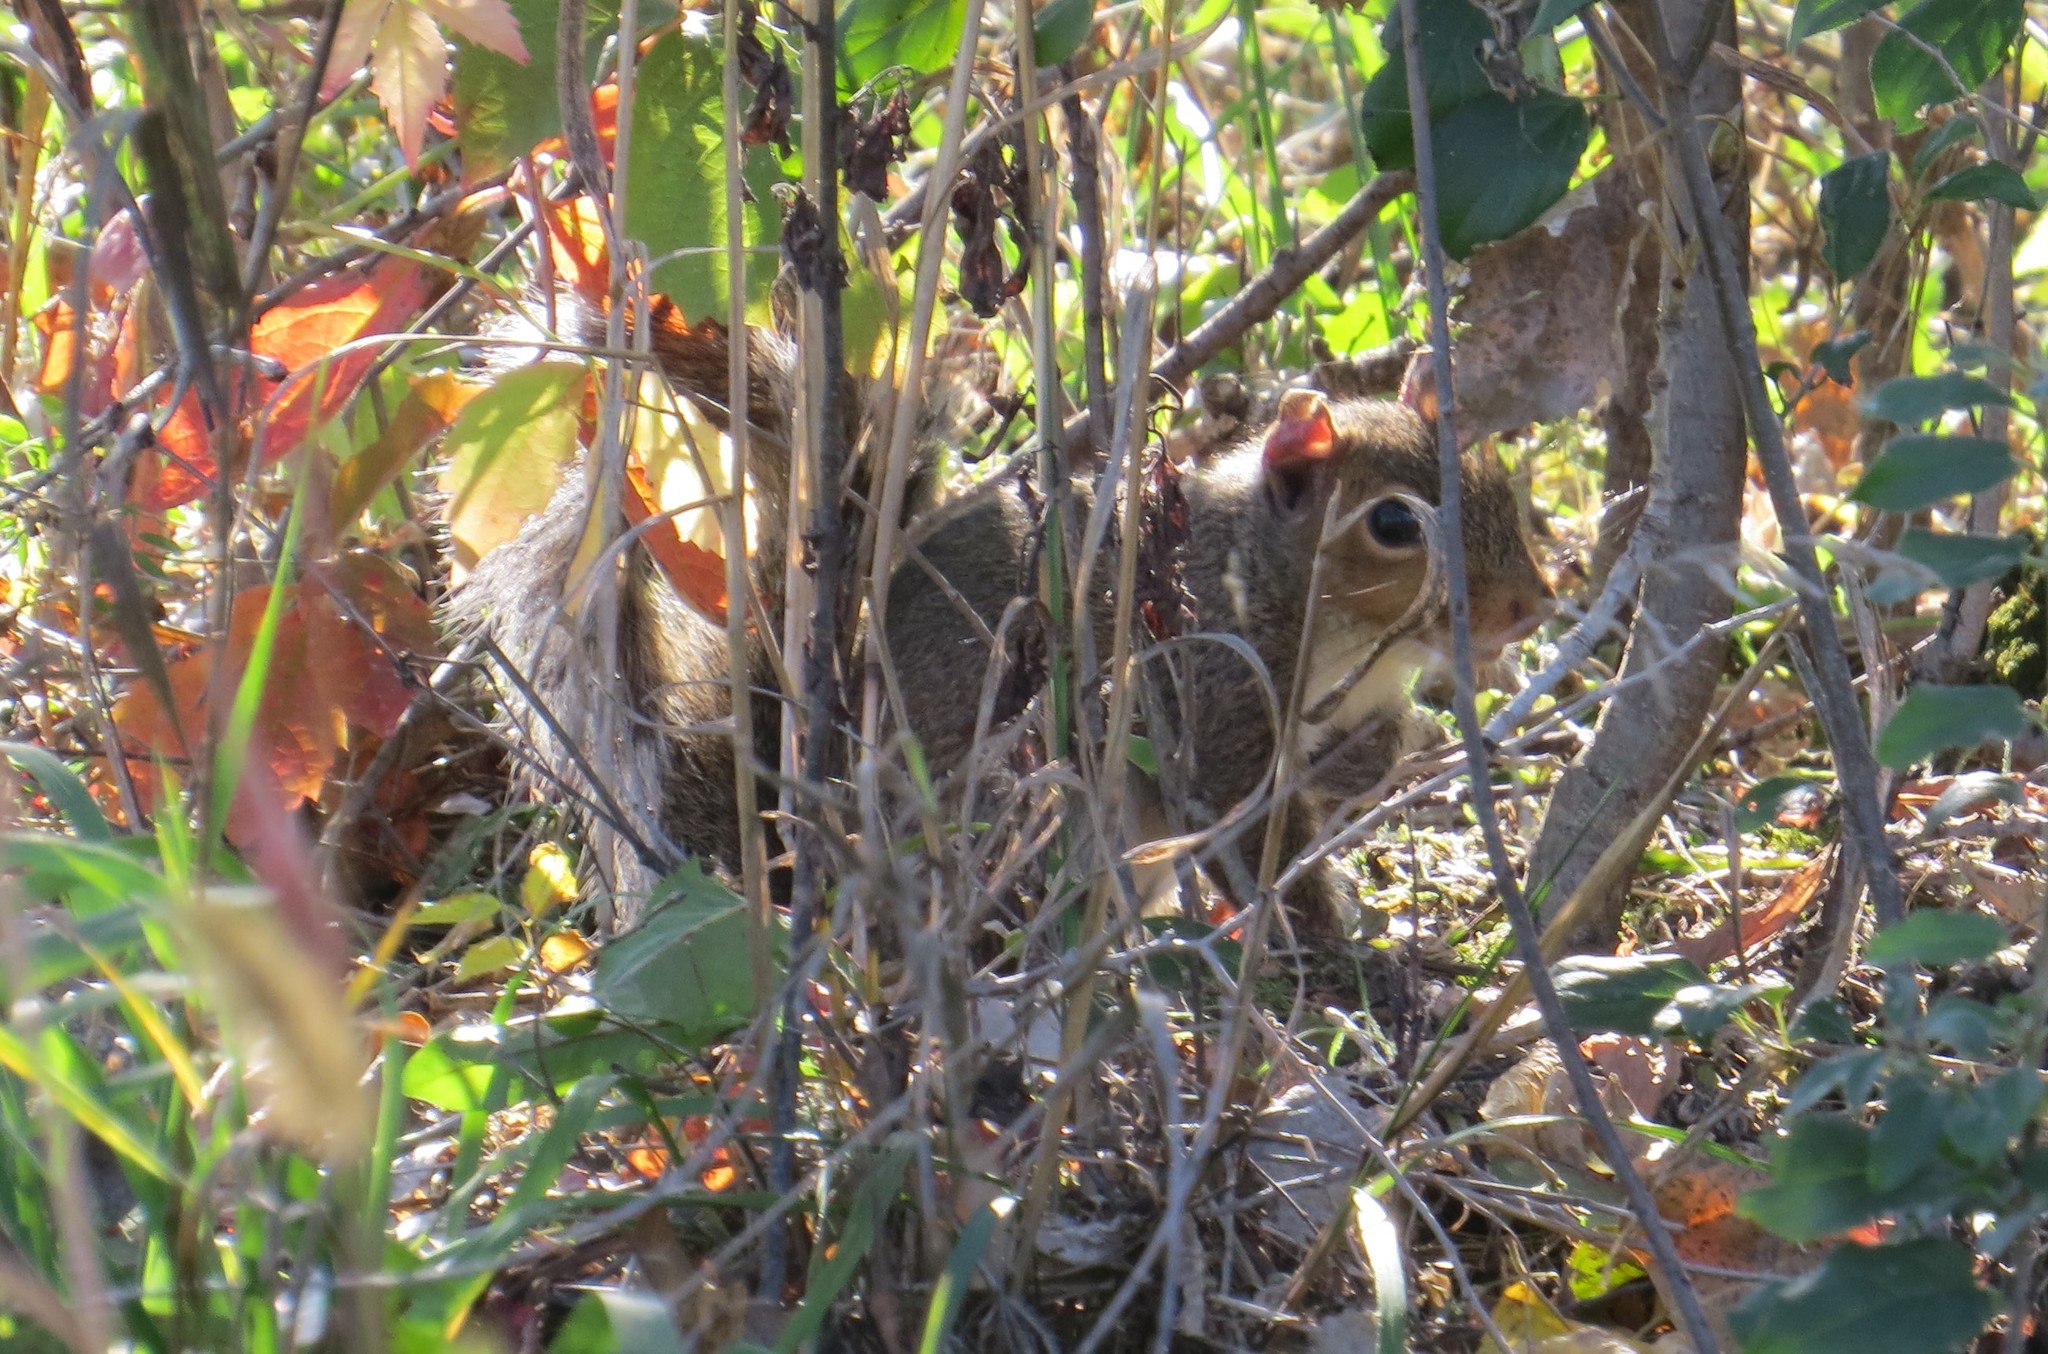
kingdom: Animalia
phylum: Chordata
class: Mammalia
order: Rodentia
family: Sciuridae
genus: Sciurus
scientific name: Sciurus carolinensis
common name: Eastern gray squirrel
